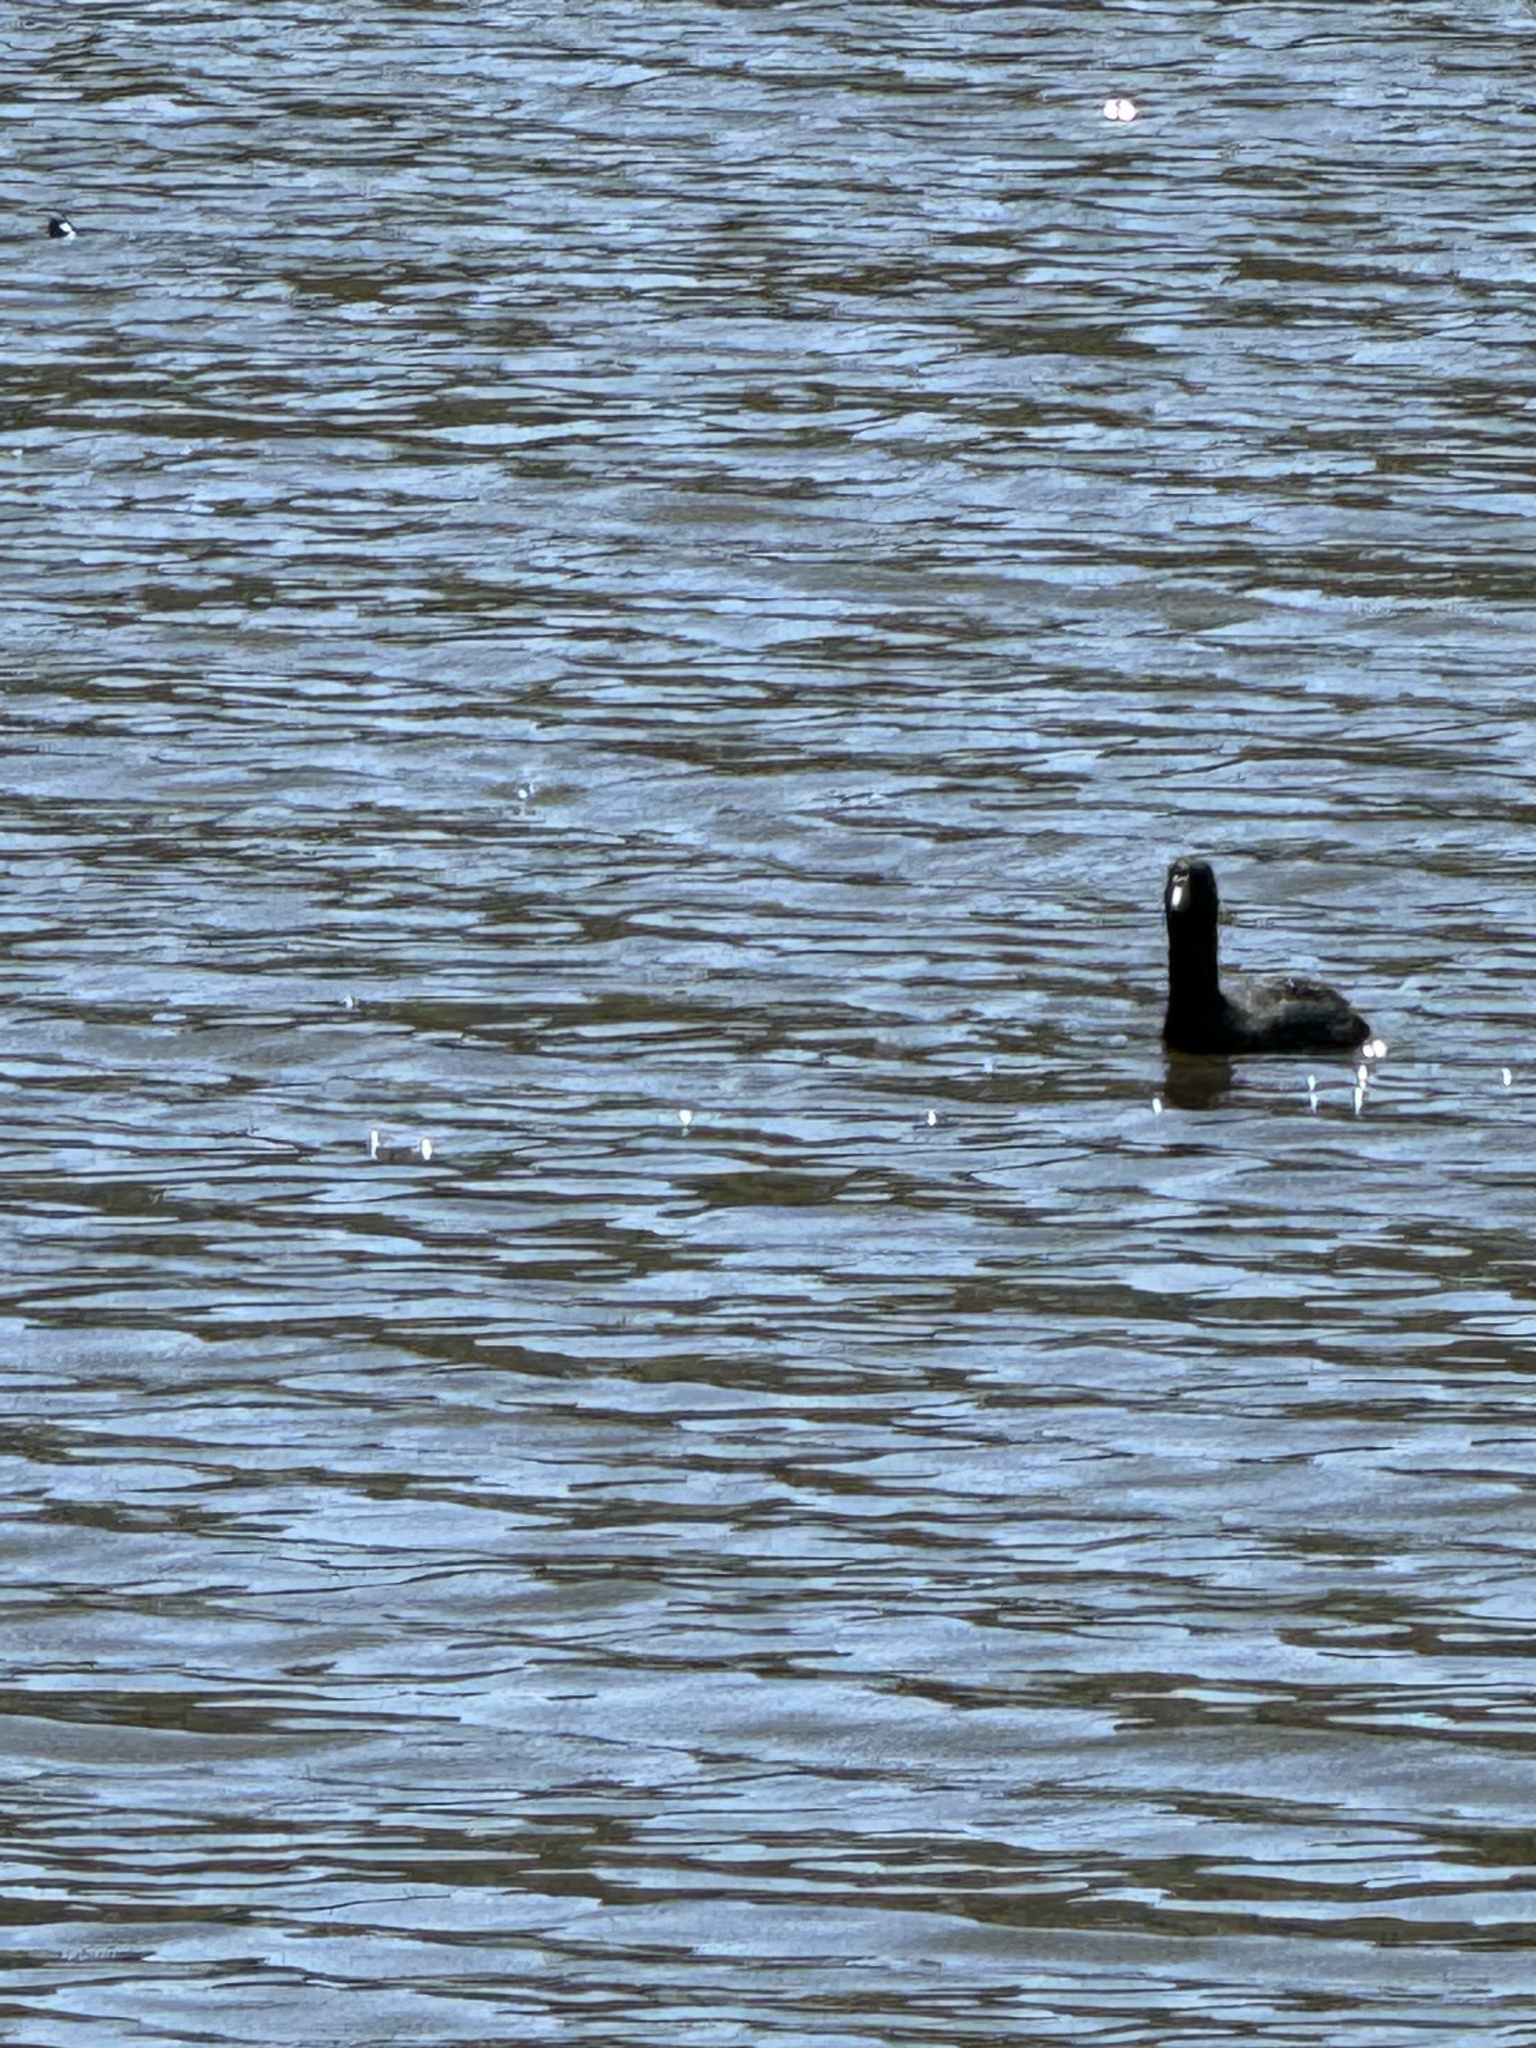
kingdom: Animalia
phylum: Chordata
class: Aves
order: Gruiformes
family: Rallidae
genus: Fulica
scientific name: Fulica americana
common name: American coot
